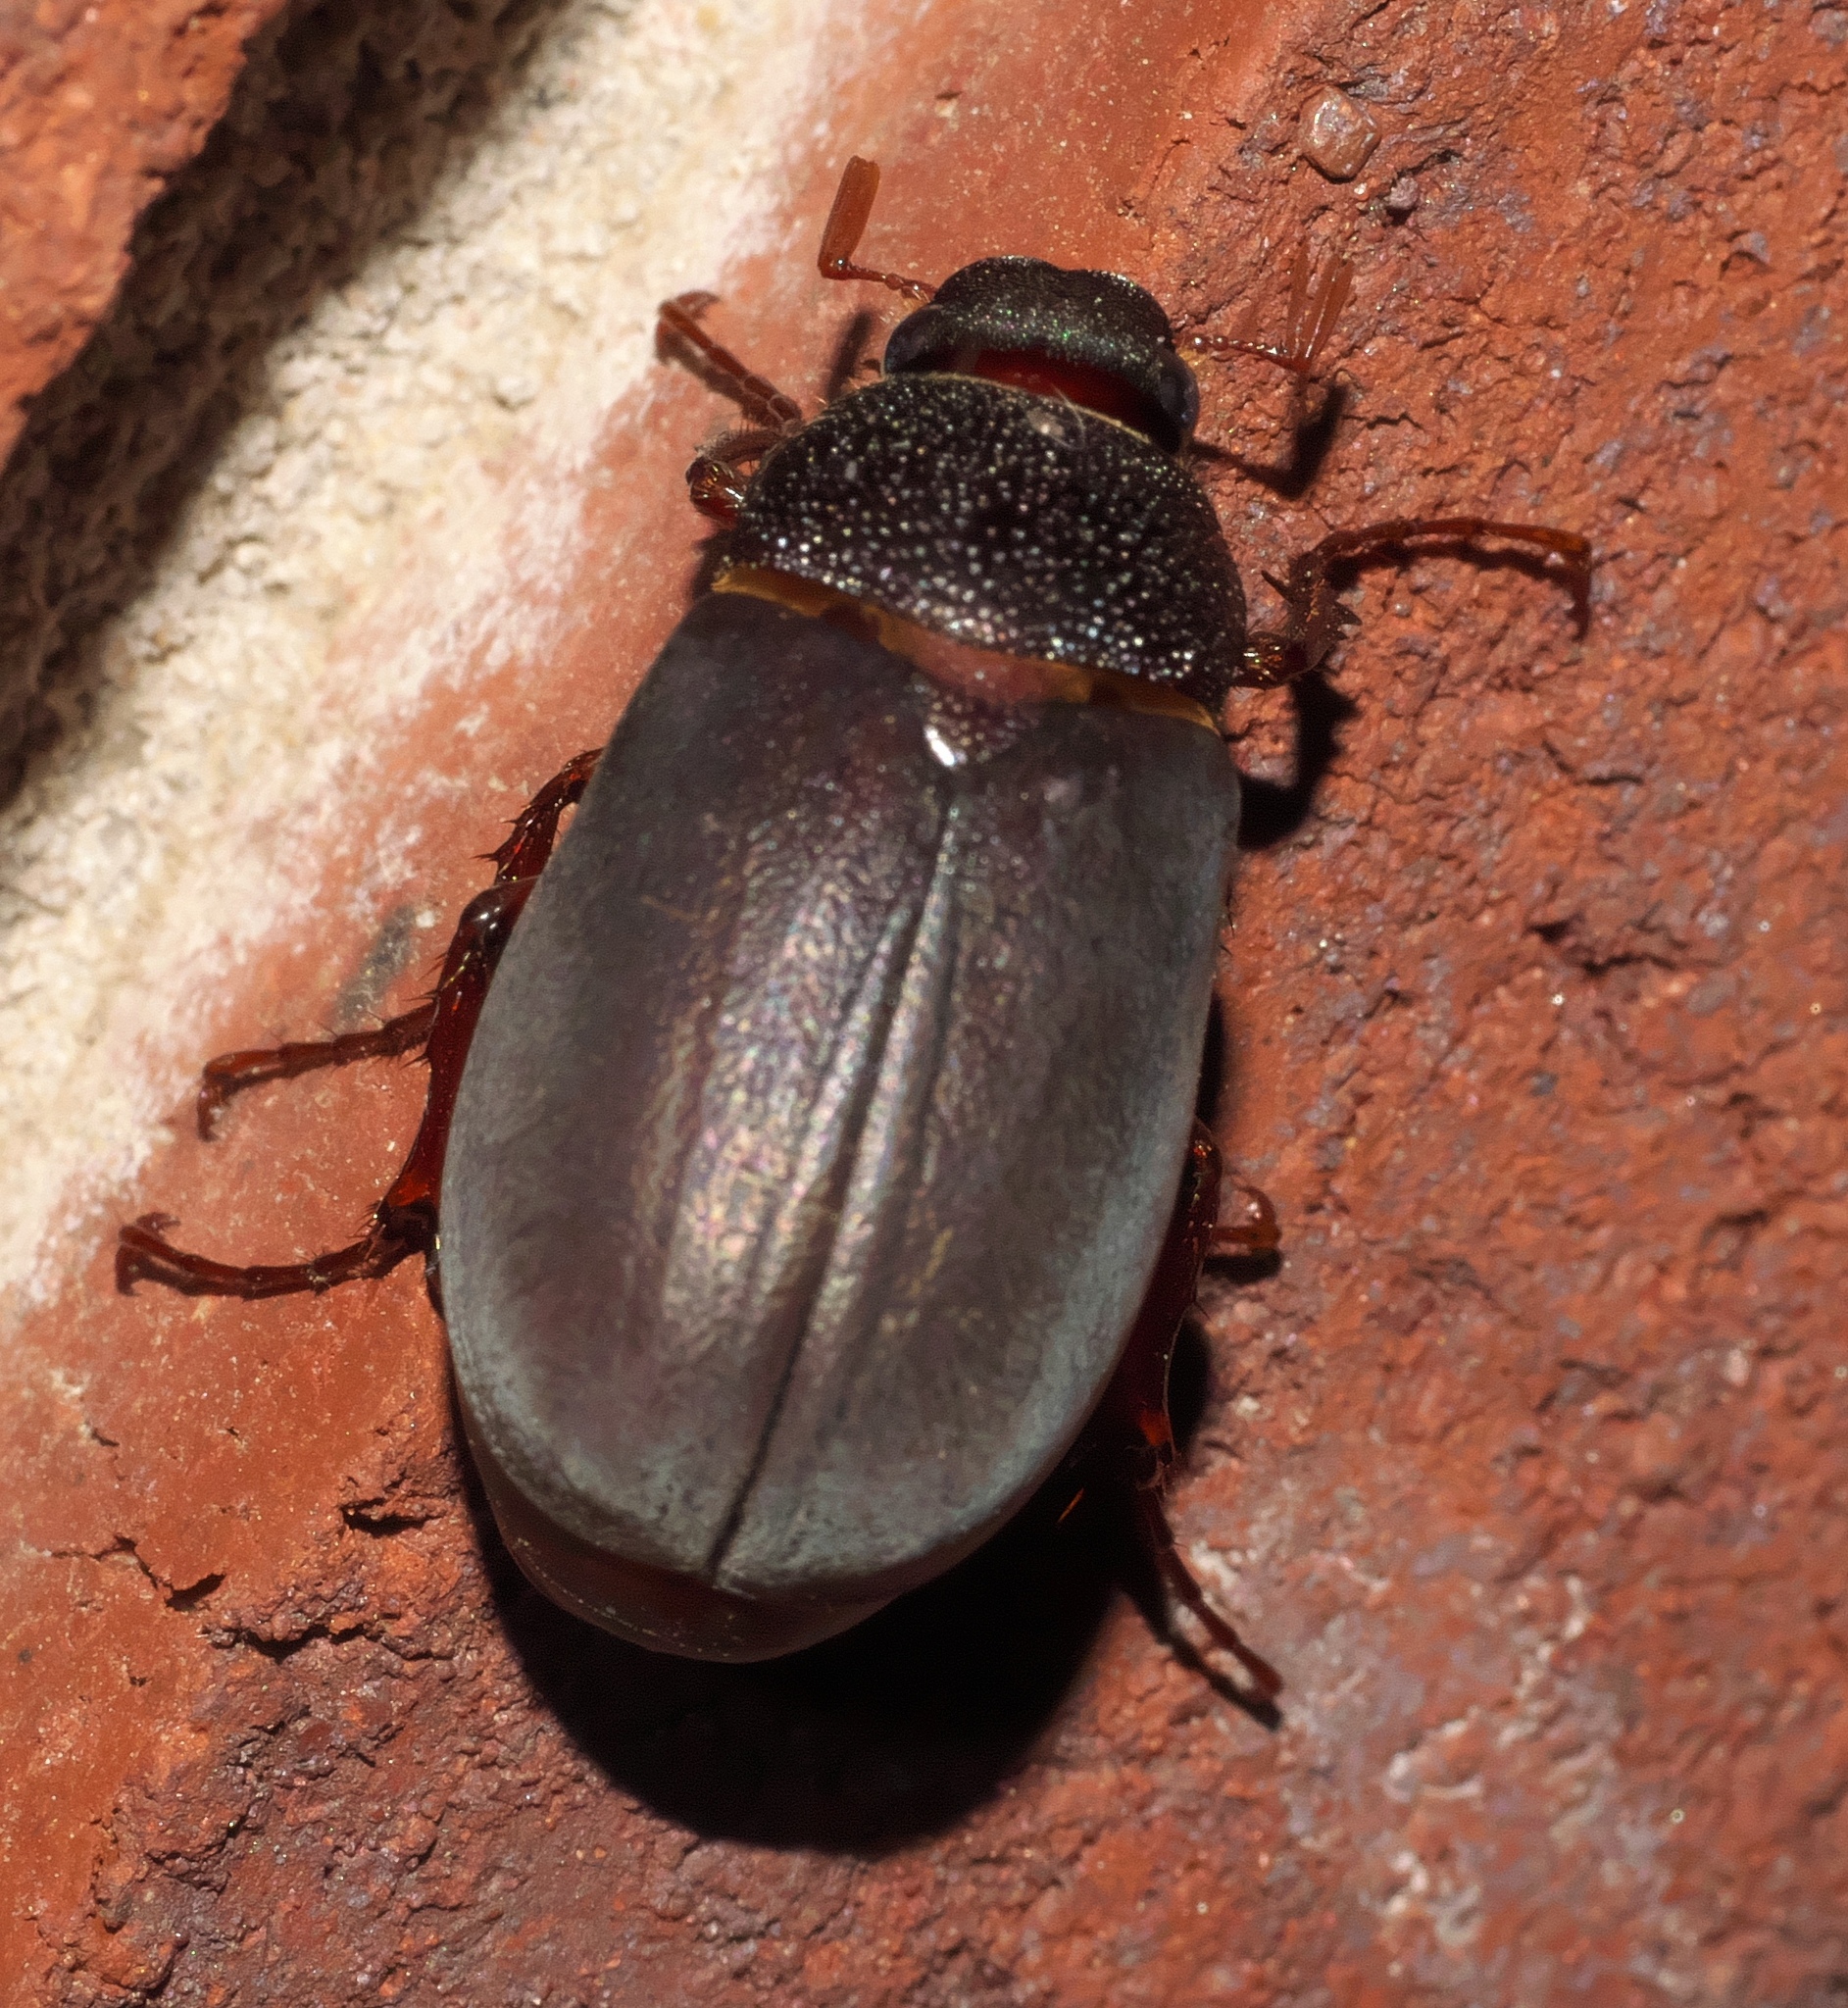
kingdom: Animalia
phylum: Arthropoda
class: Insecta
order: Coleoptera
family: Scarabaeidae
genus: Phyllophaga
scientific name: Phyllophaga prunina
